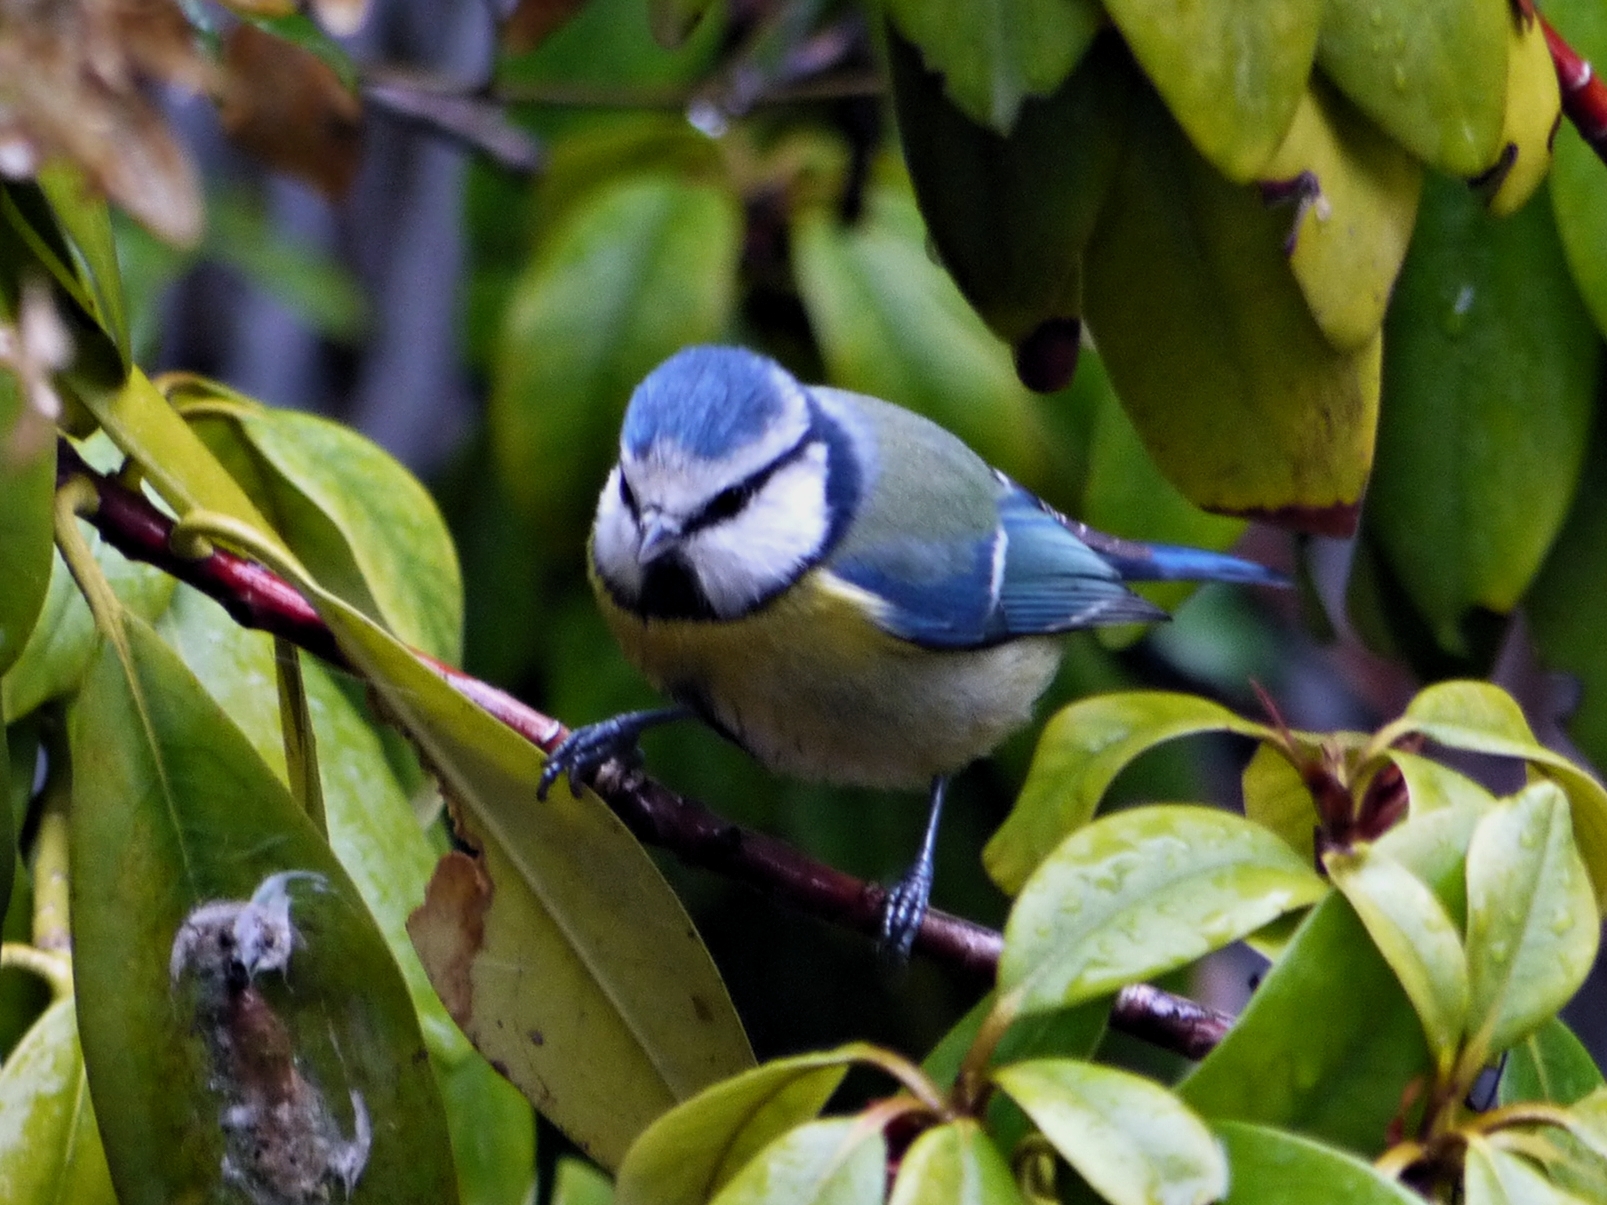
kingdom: Animalia
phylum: Chordata
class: Aves
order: Passeriformes
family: Paridae
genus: Cyanistes
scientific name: Cyanistes caeruleus
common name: Eurasian blue tit
